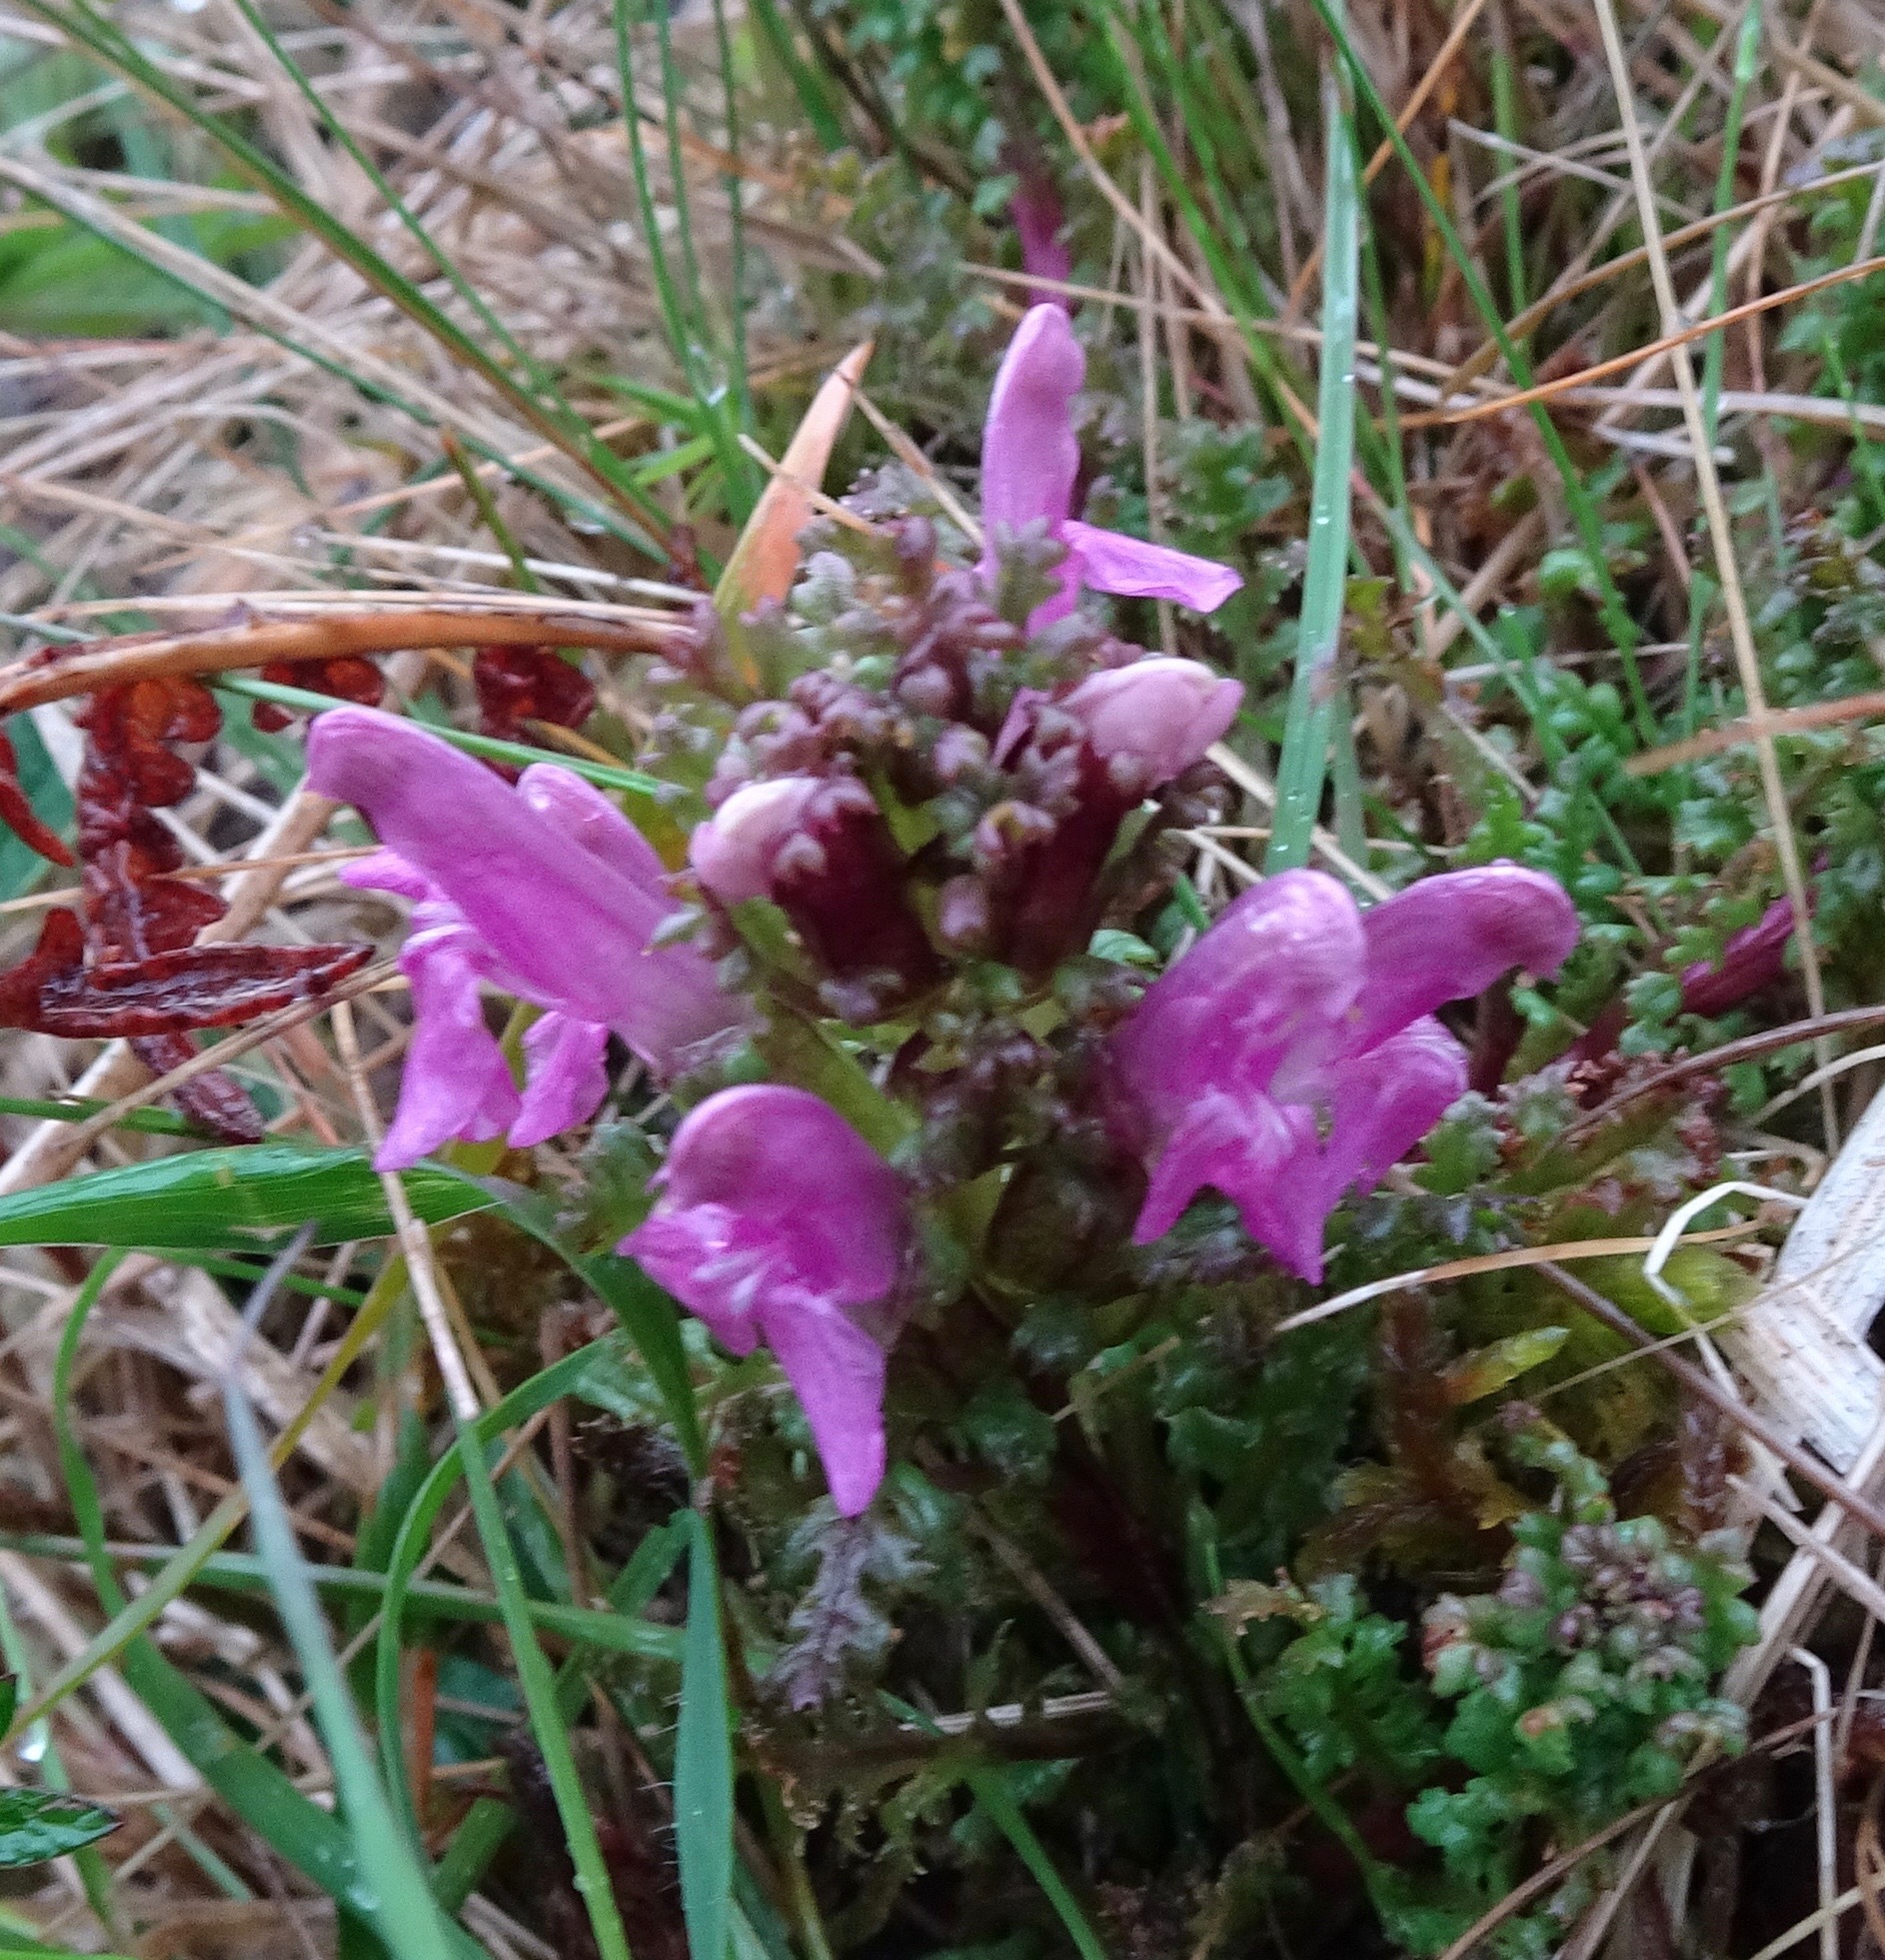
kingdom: Plantae
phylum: Tracheophyta
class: Magnoliopsida
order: Lamiales
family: Orobanchaceae
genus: Pedicularis
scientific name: Pedicularis sylvatica
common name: Lousewort
